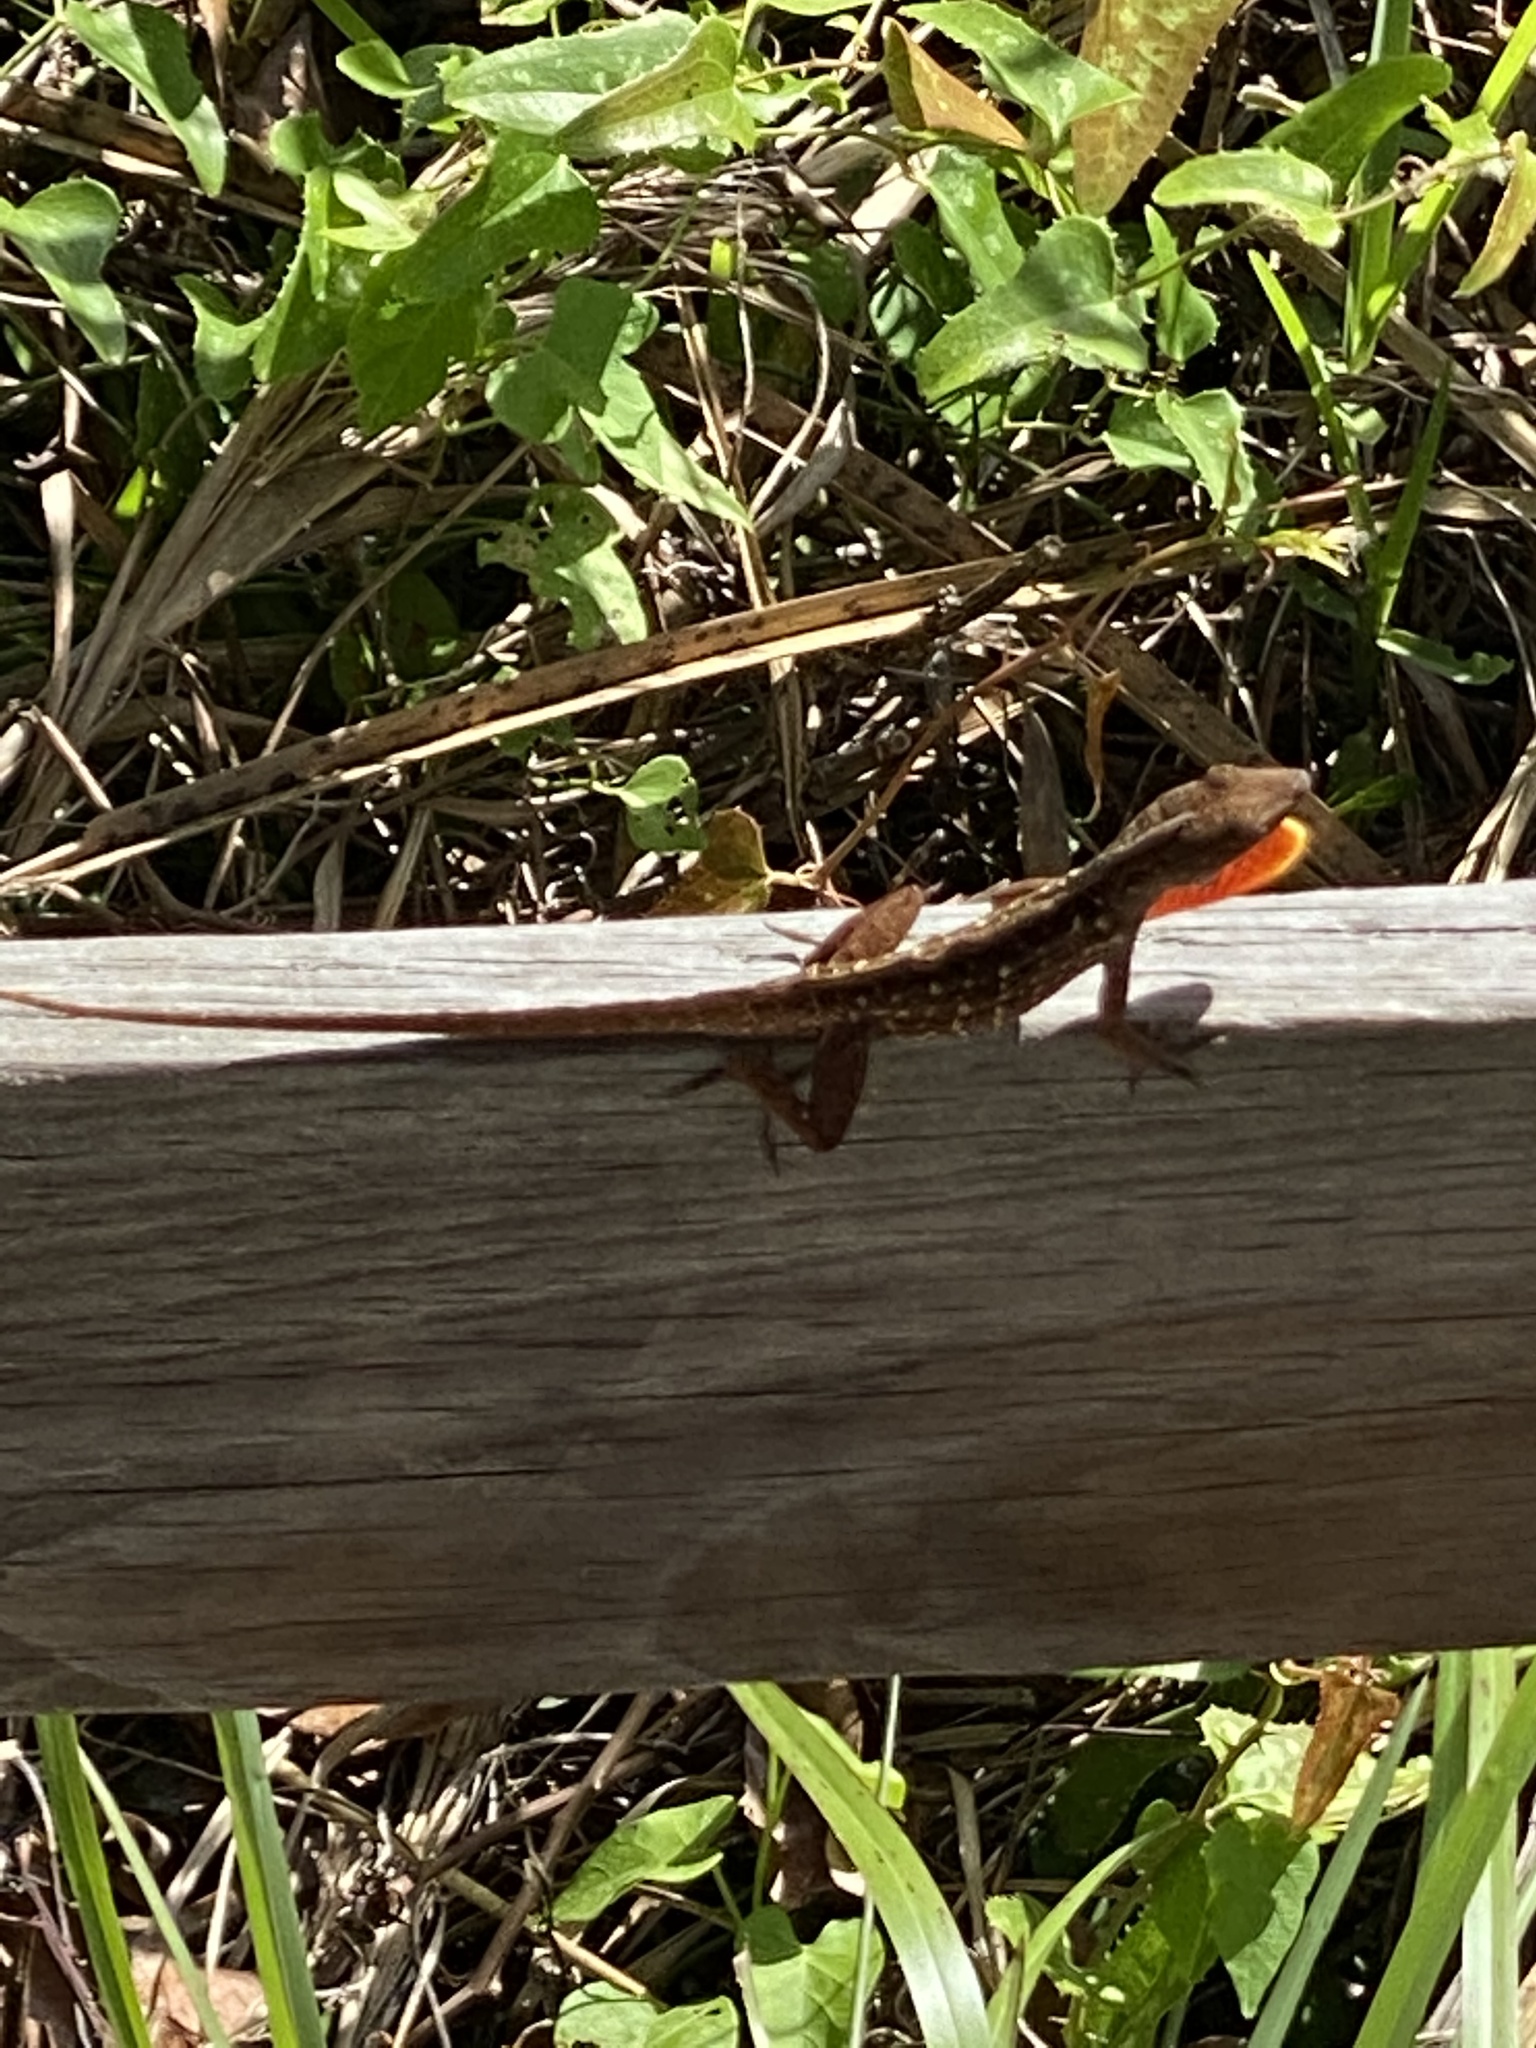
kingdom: Animalia
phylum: Chordata
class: Squamata
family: Dactyloidae
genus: Anolis
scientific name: Anolis sagrei
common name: Brown anole
